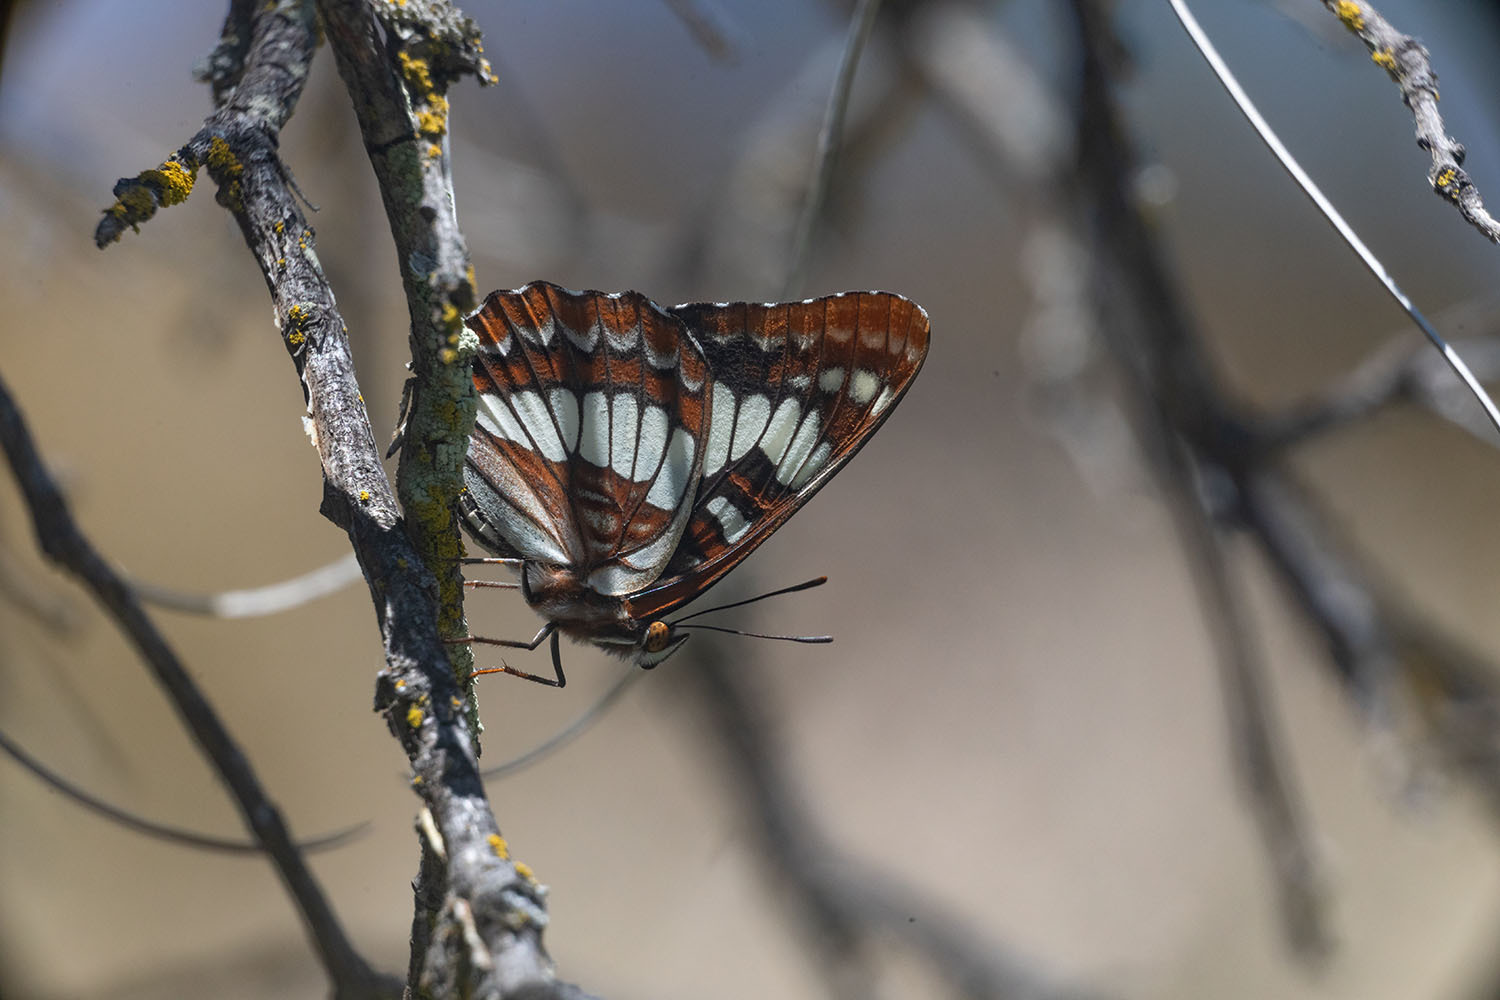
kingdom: Animalia
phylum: Arthropoda
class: Insecta
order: Lepidoptera
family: Nymphalidae
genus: Limenitis
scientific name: Limenitis lorquini
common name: Lorquin's admiral
